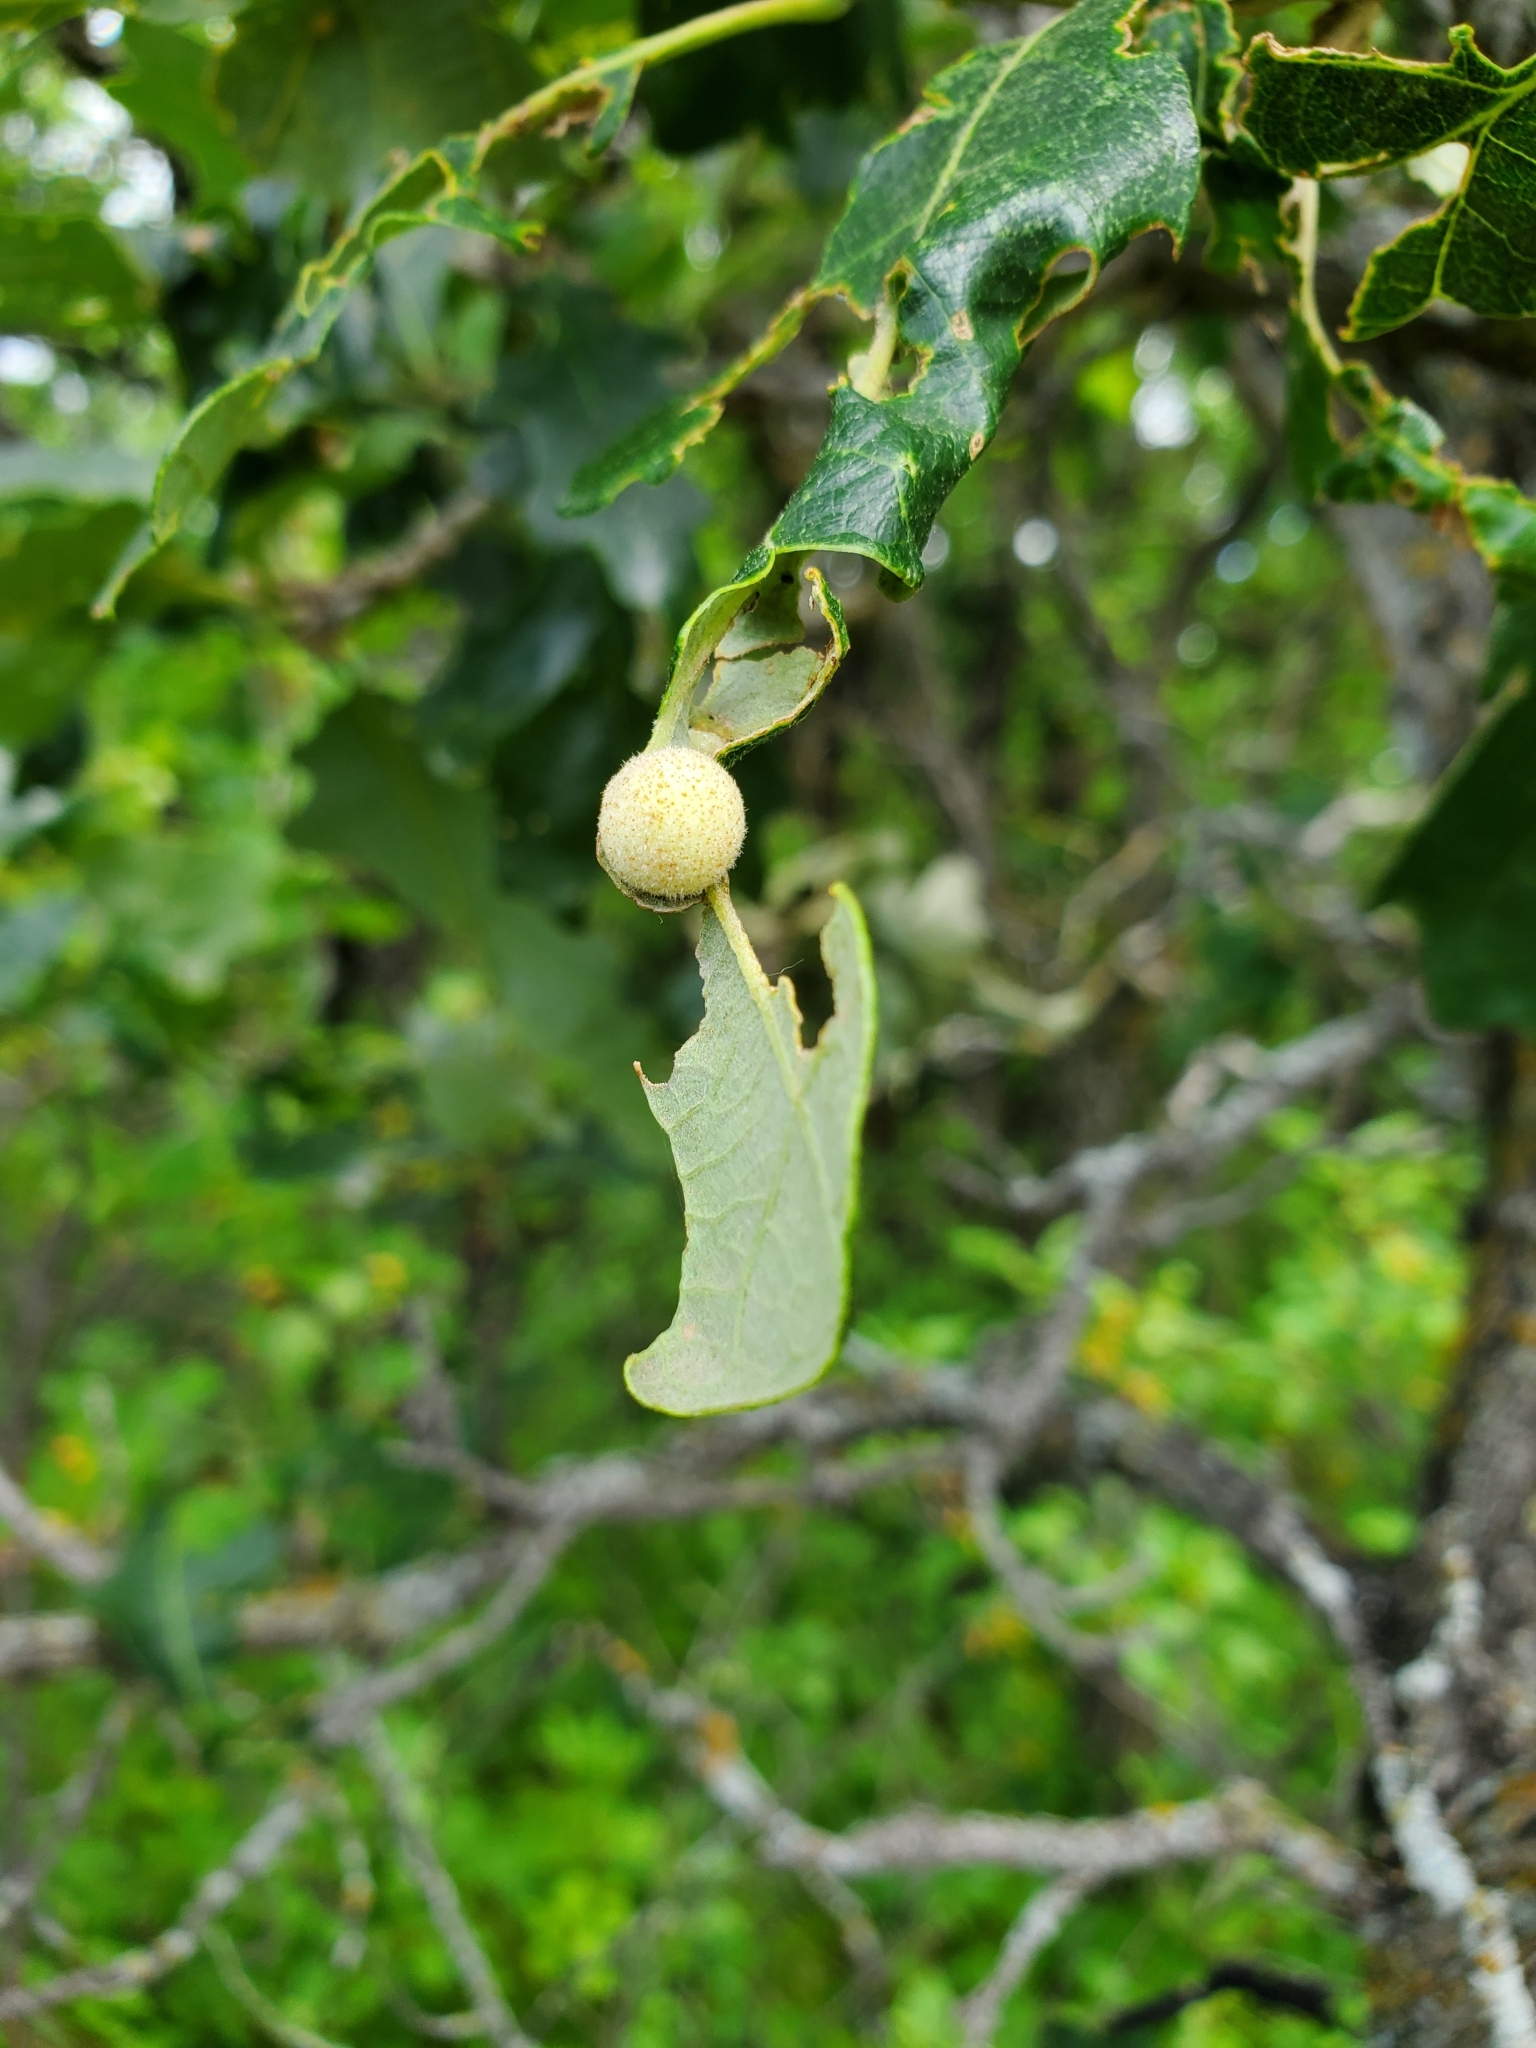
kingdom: Animalia
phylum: Arthropoda
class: Insecta
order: Hymenoptera
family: Cynipidae
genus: Philonix
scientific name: Philonix fulvicollis
